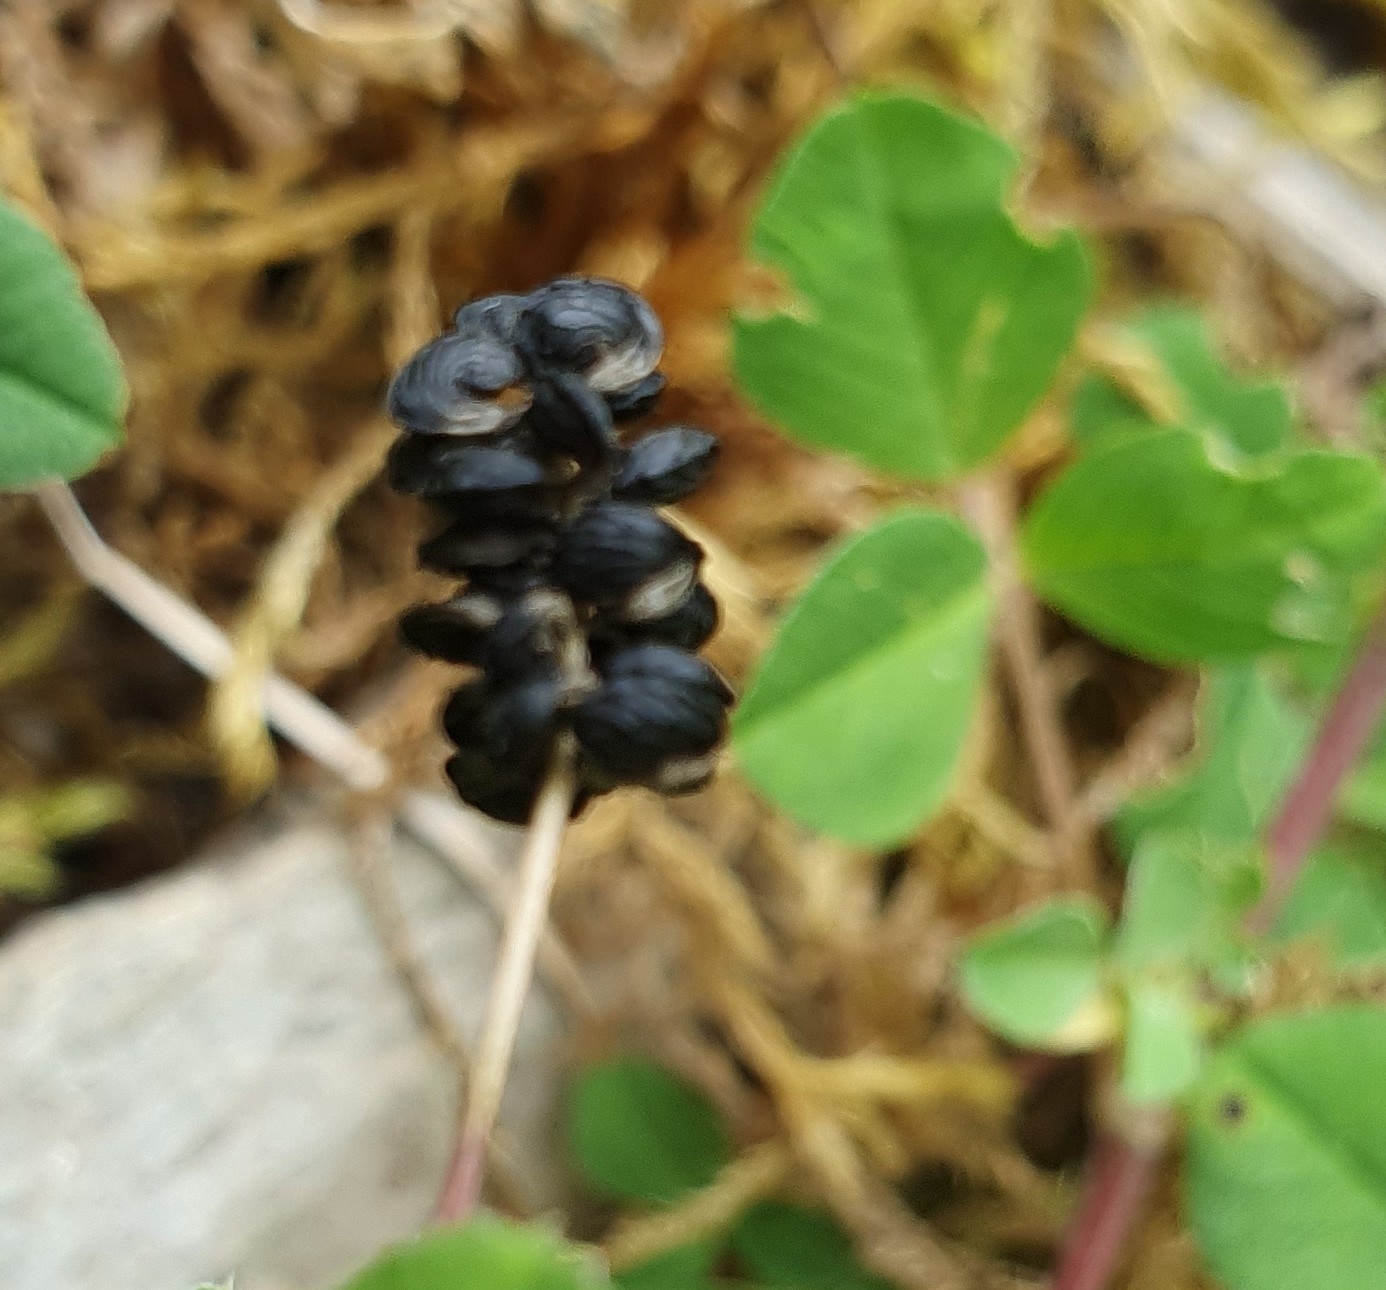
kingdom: Plantae
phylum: Tracheophyta
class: Magnoliopsida
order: Fabales
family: Fabaceae
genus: Medicago
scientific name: Medicago lupulina
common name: Black medick
